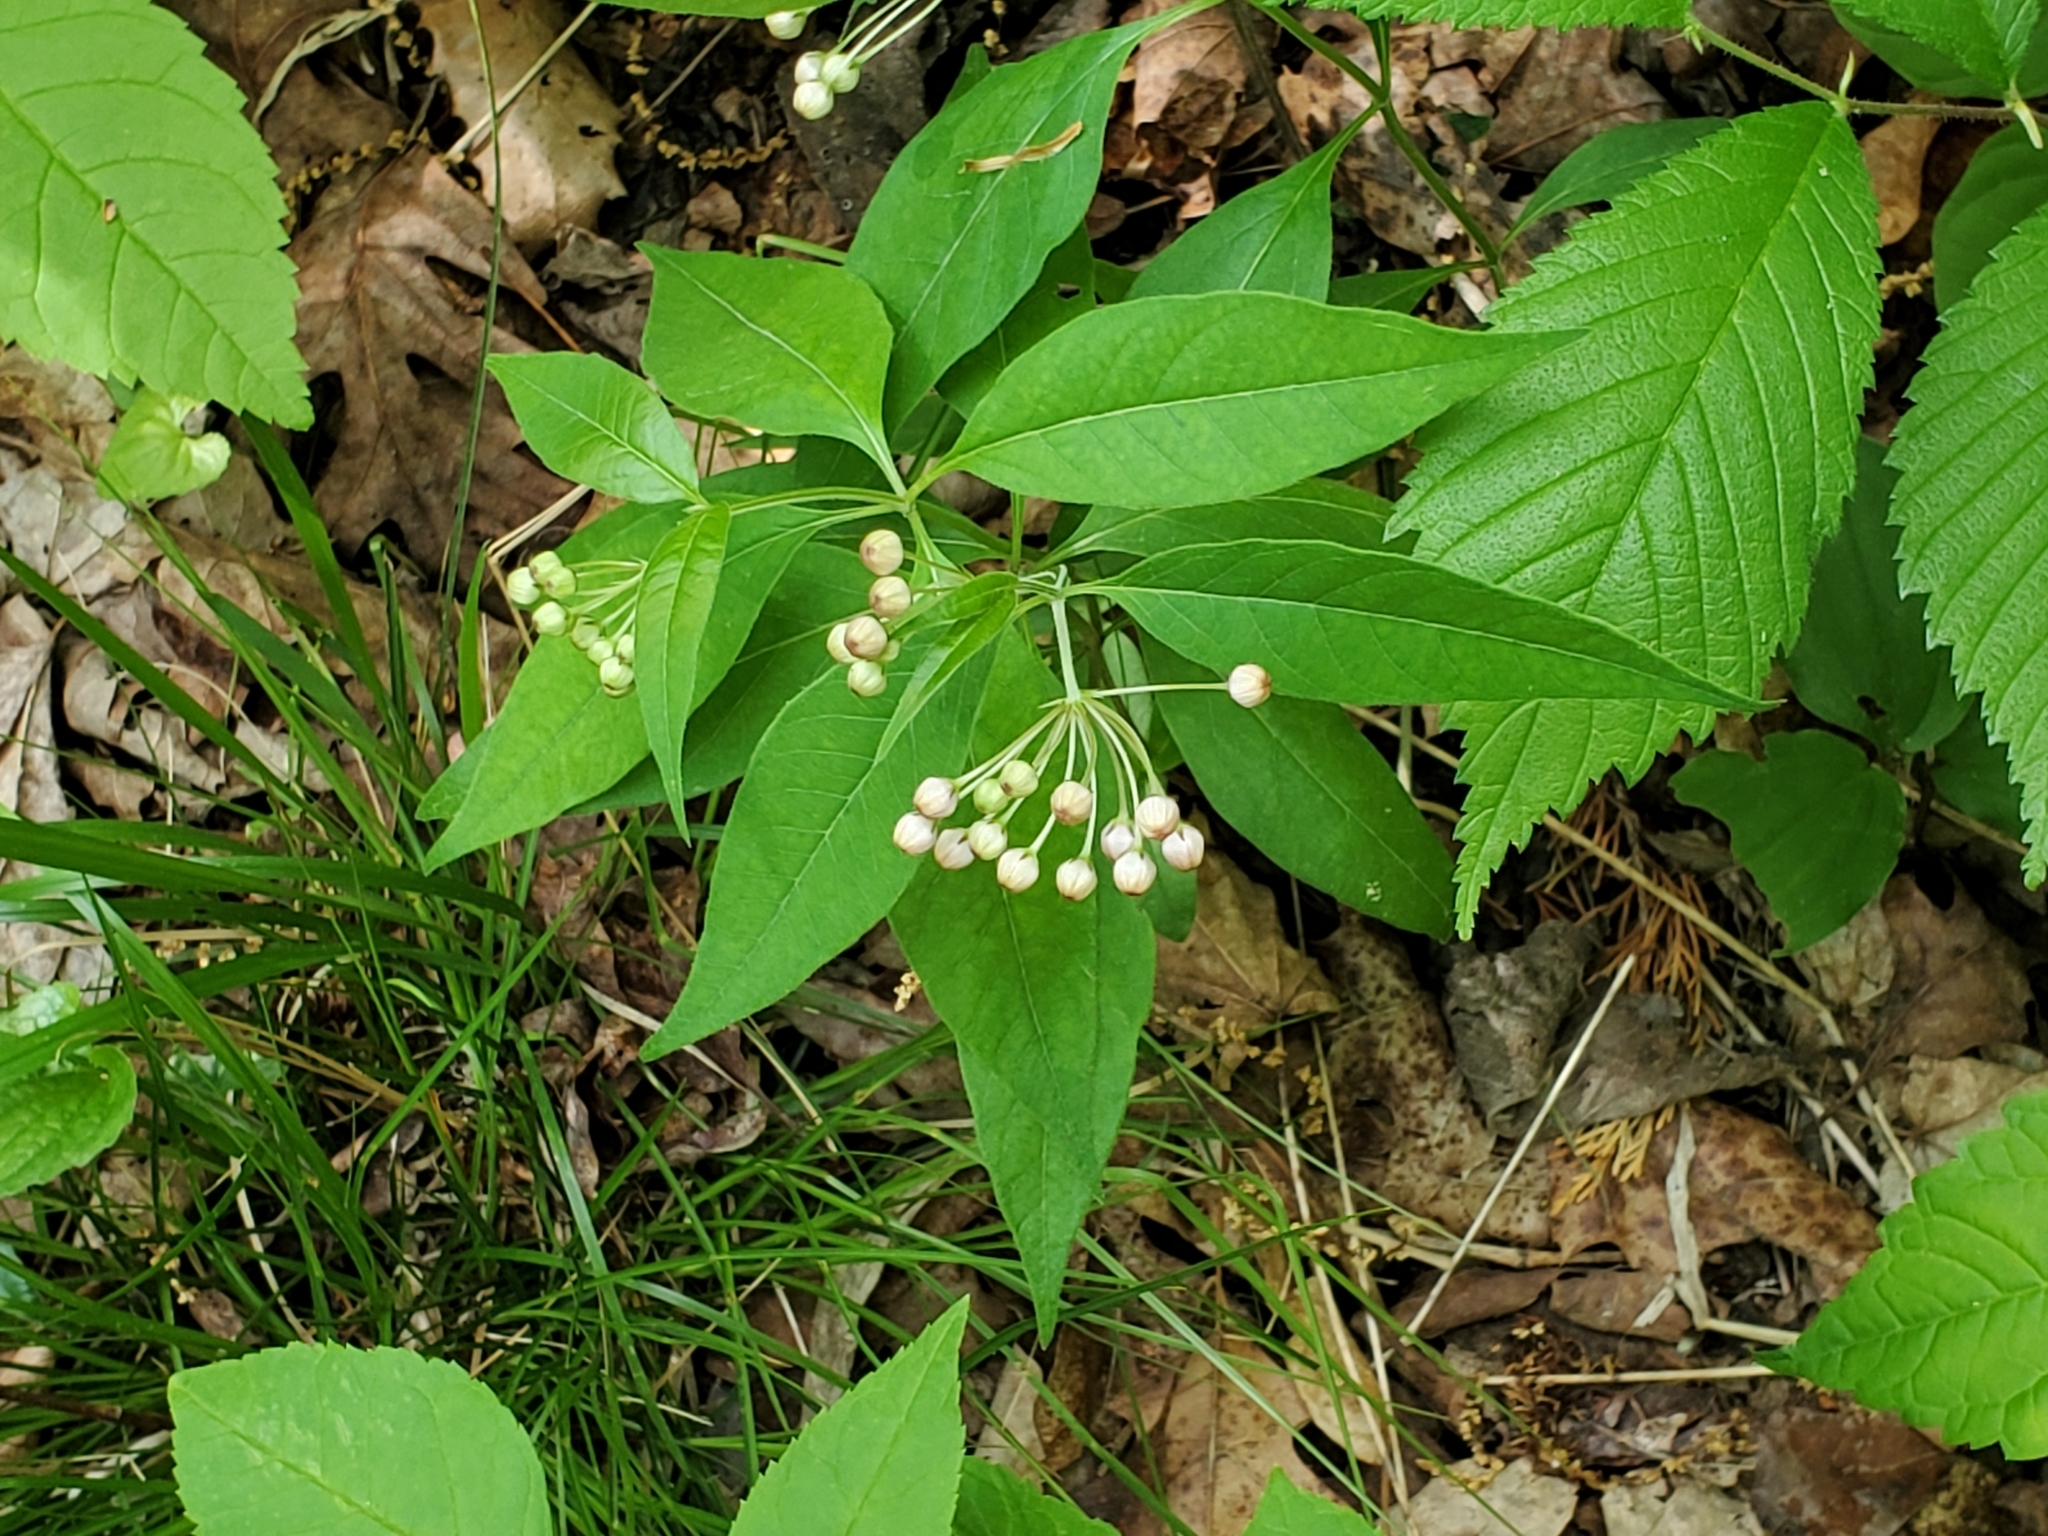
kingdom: Plantae
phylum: Tracheophyta
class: Magnoliopsida
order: Gentianales
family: Apocynaceae
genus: Asclepias
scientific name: Asclepias quadrifolia
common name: Whorled milkweed
